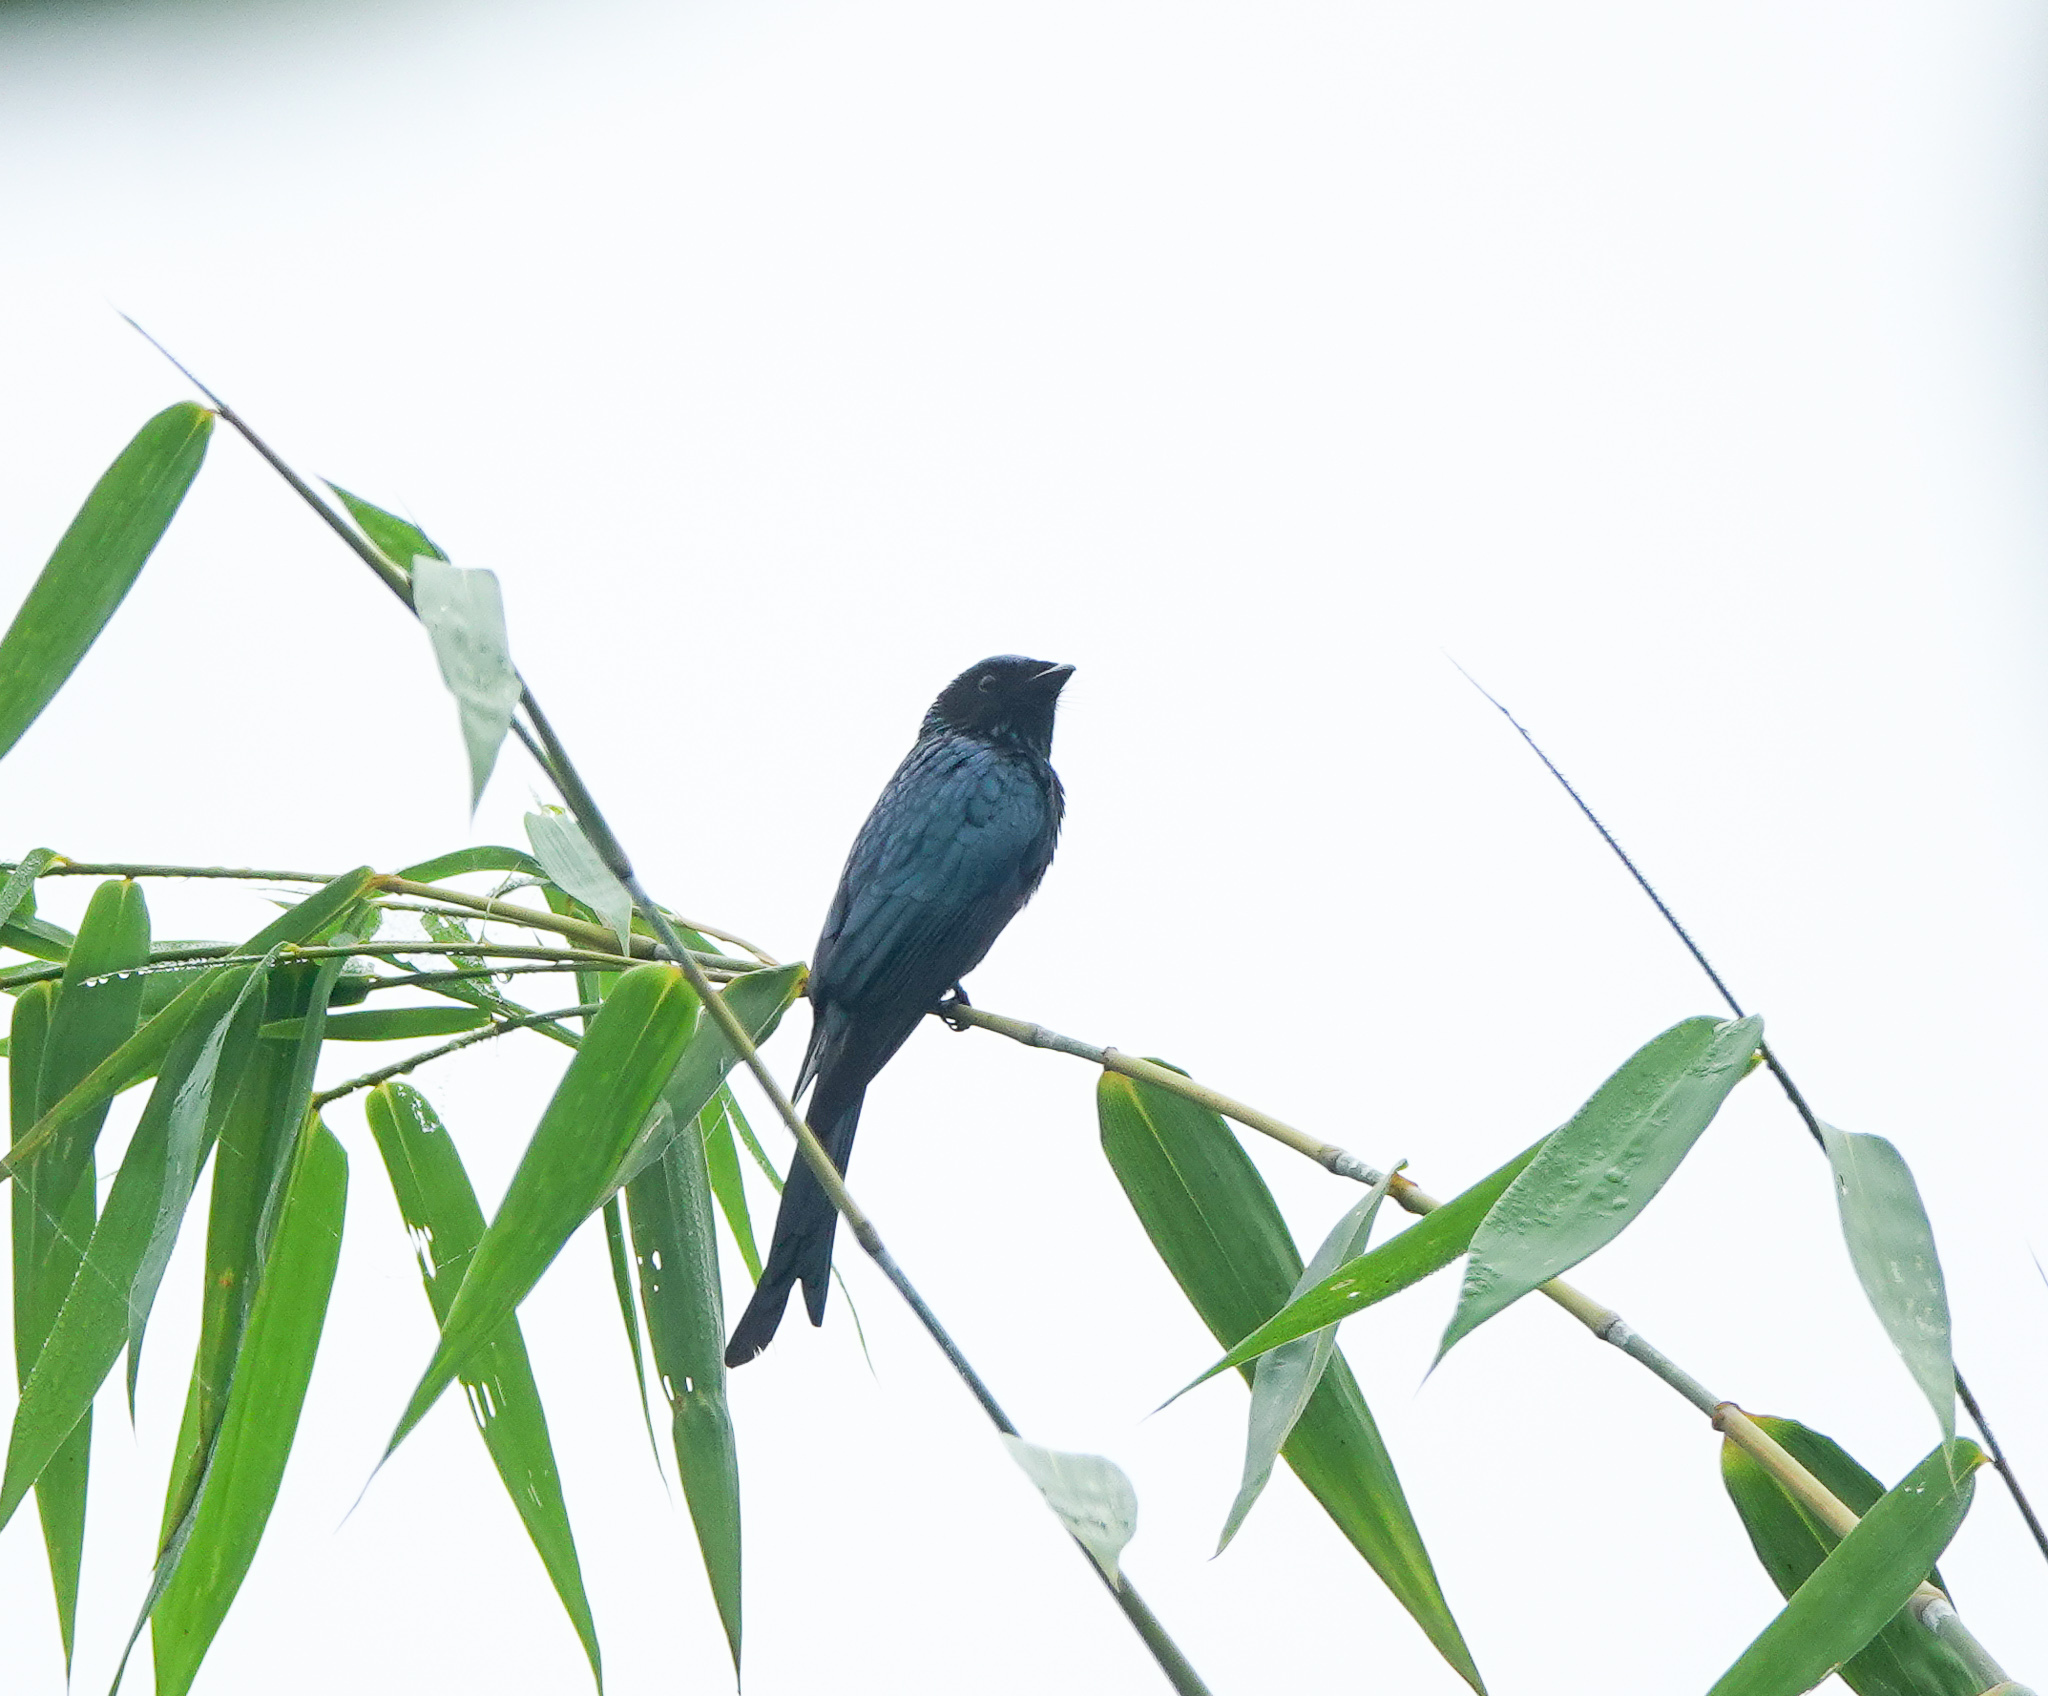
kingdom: Animalia
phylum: Chordata
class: Aves
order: Passeriformes
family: Dicruridae
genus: Dicrurus
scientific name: Dicrurus aeneus
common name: Bronzed drongo
